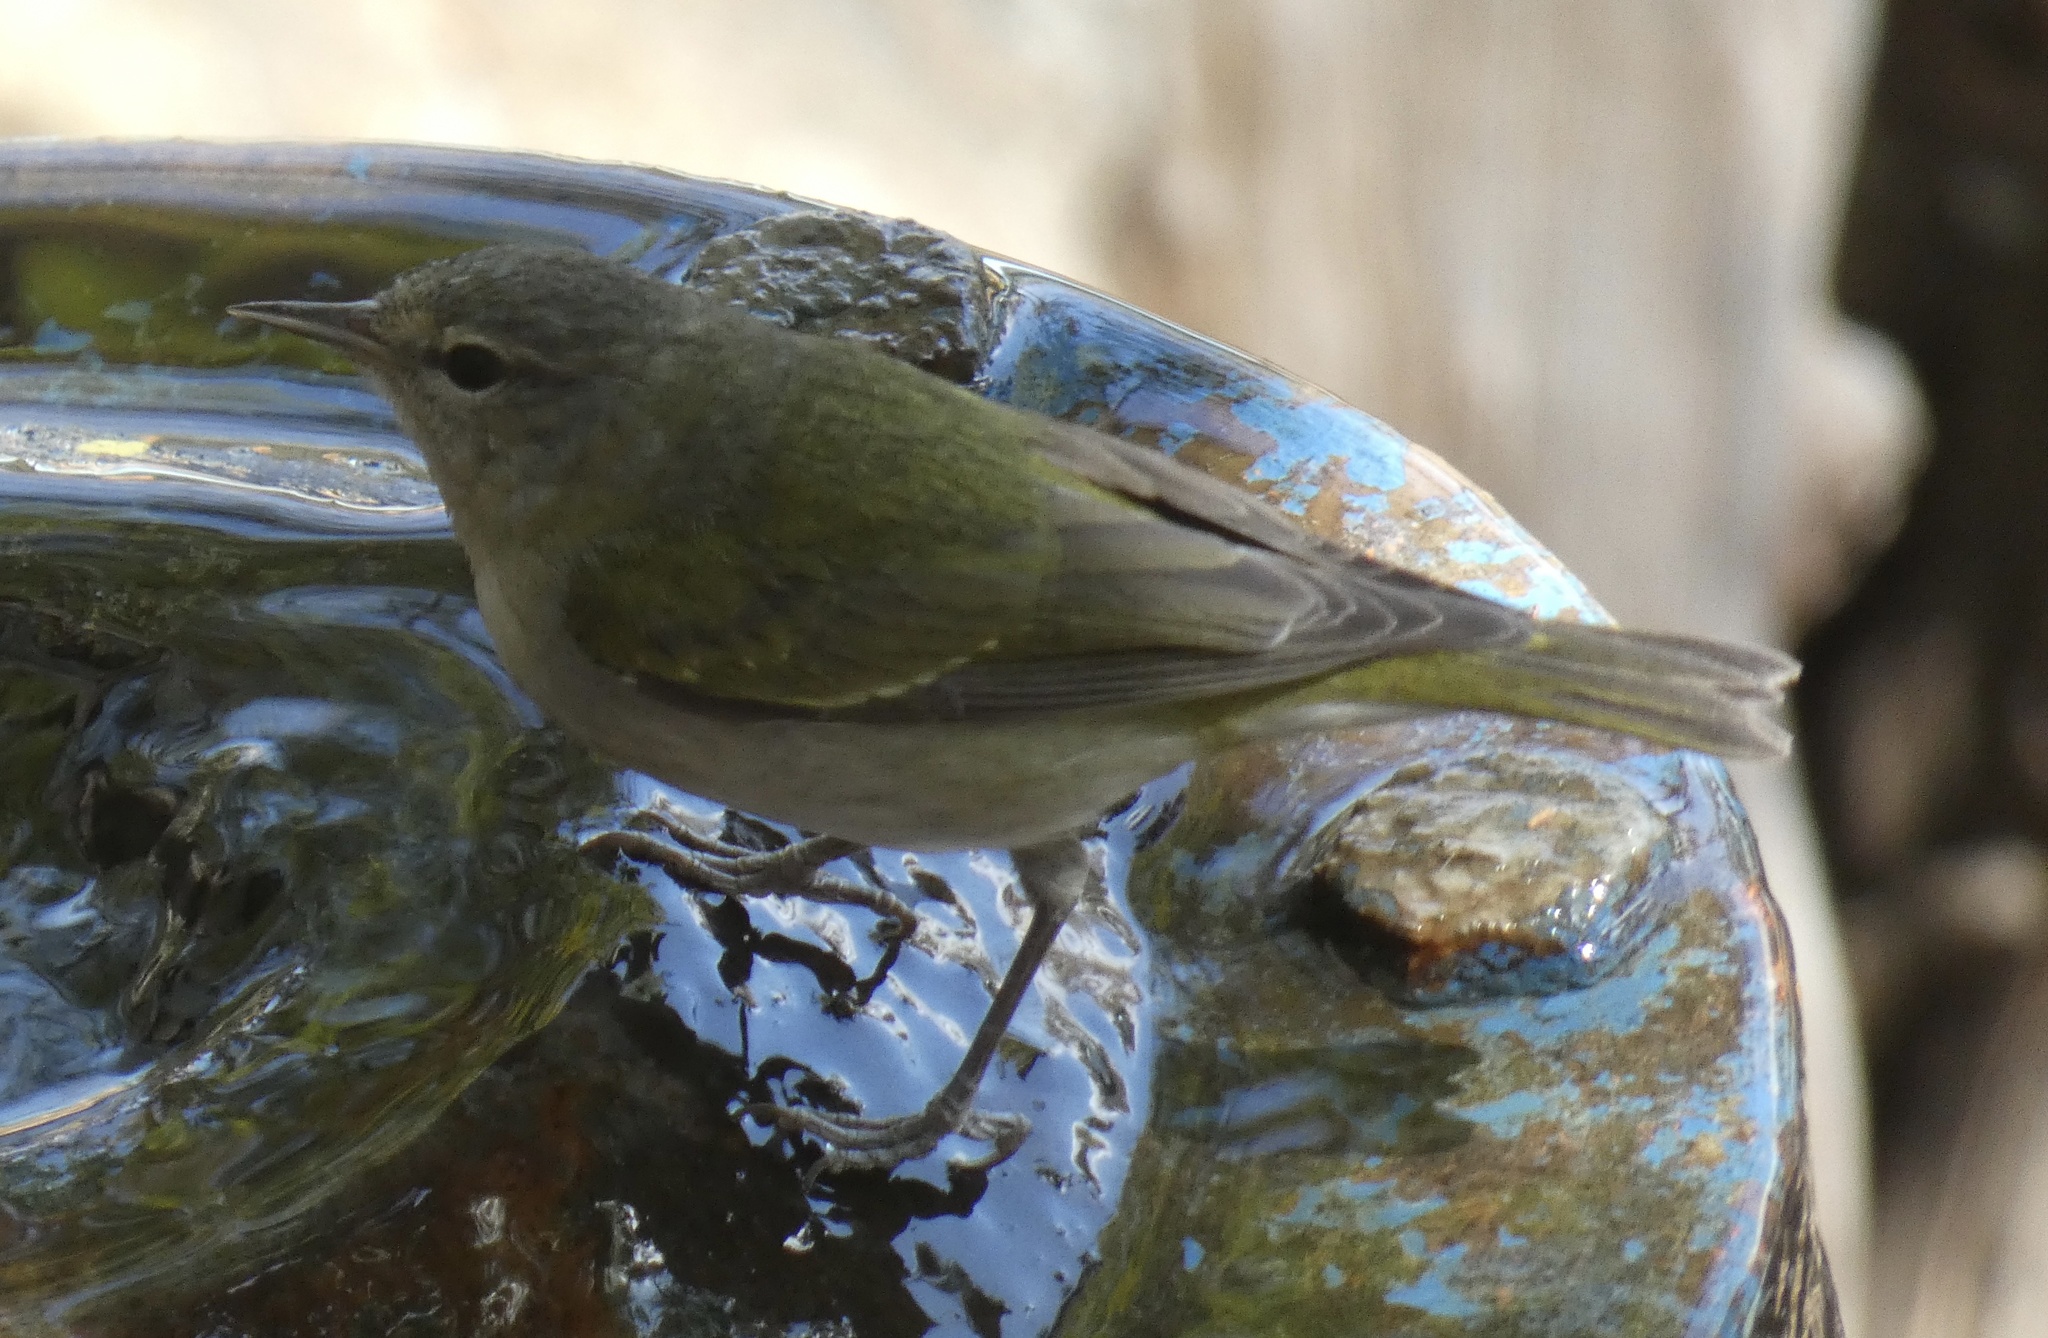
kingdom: Animalia
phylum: Chordata
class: Aves
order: Passeriformes
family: Parulidae
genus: Leiothlypis
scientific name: Leiothlypis peregrina
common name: Tennessee warbler
